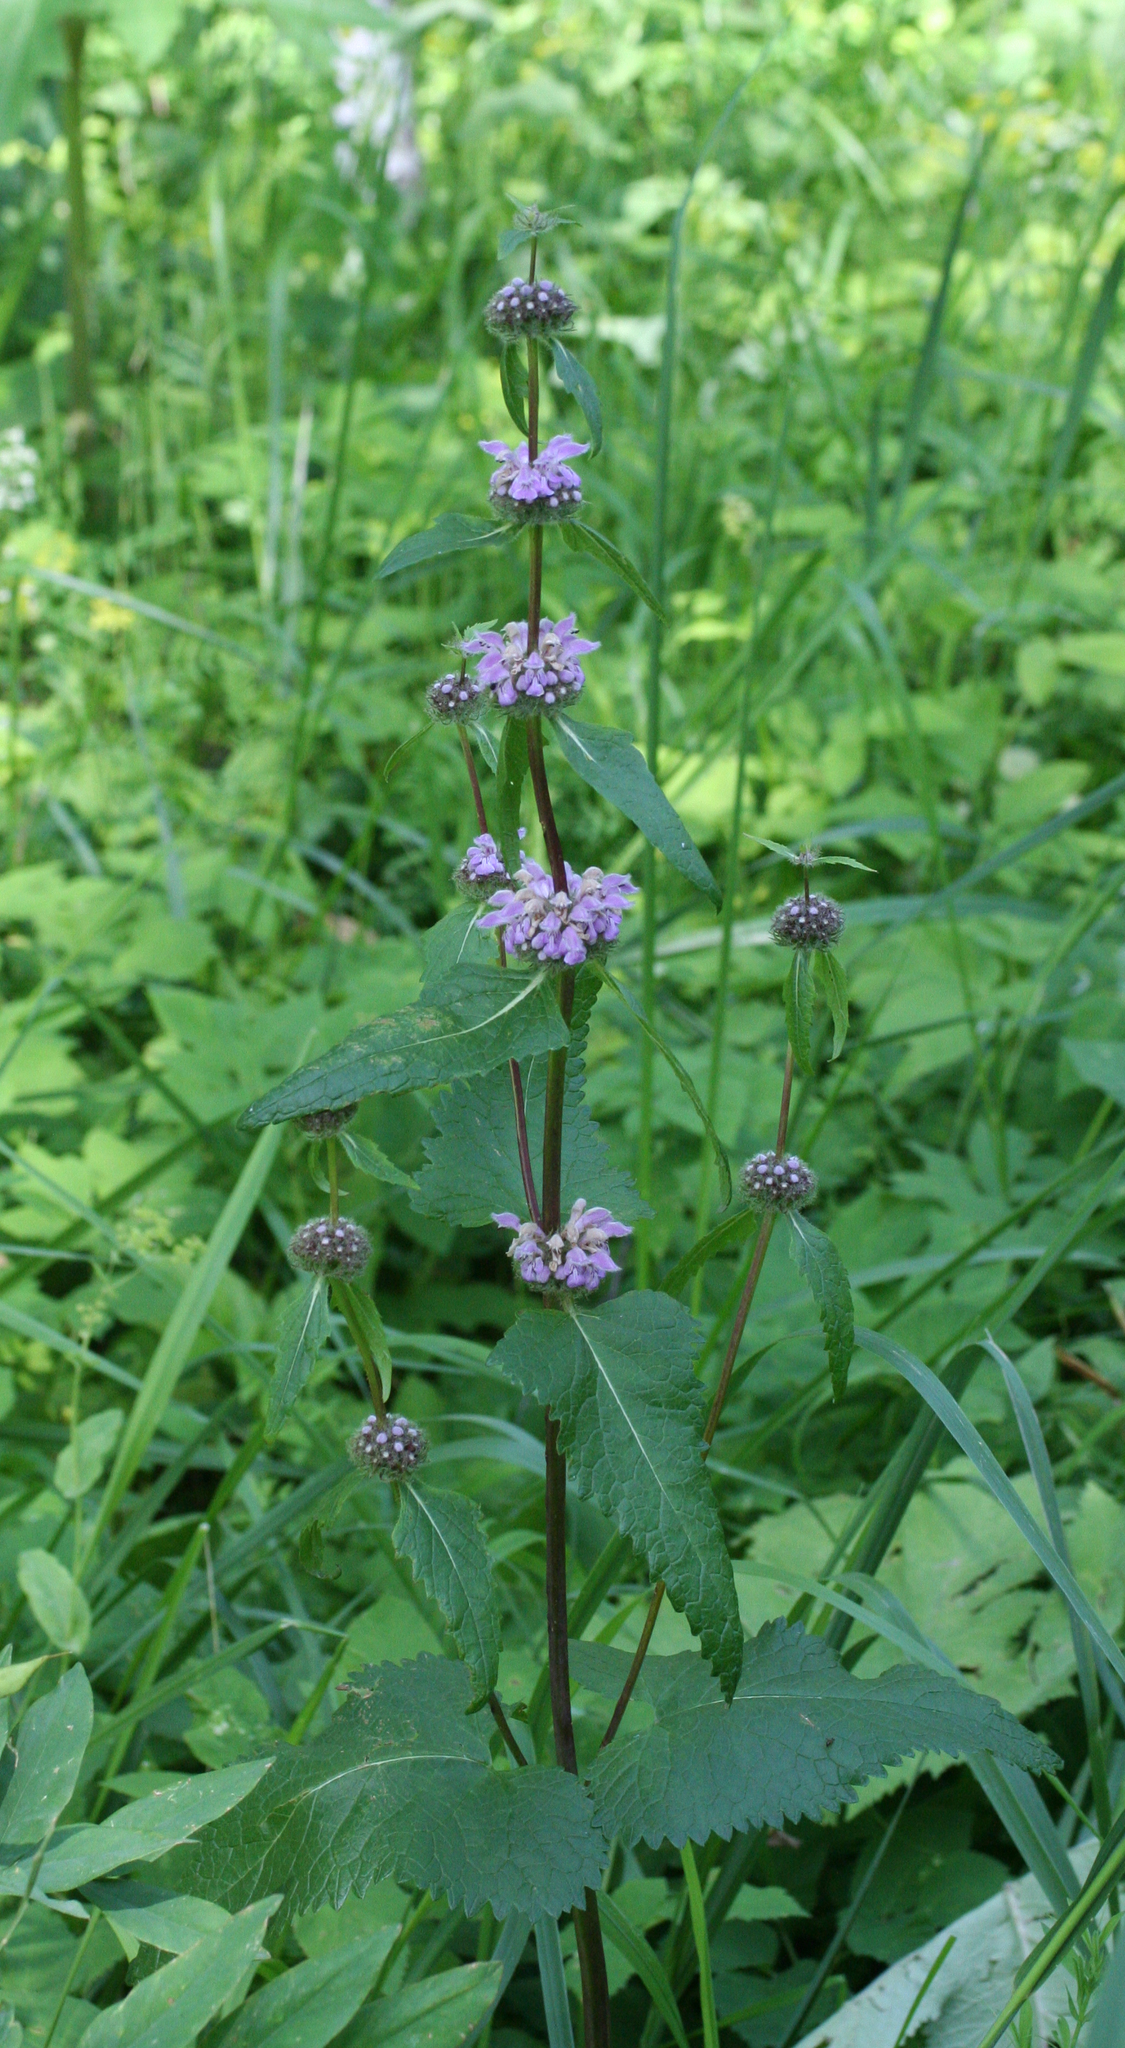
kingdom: Plantae
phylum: Tracheophyta
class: Magnoliopsida
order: Lamiales
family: Lamiaceae
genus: Phlomoides
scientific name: Phlomoides tuberosa
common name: Tuberous jerusalem sage
